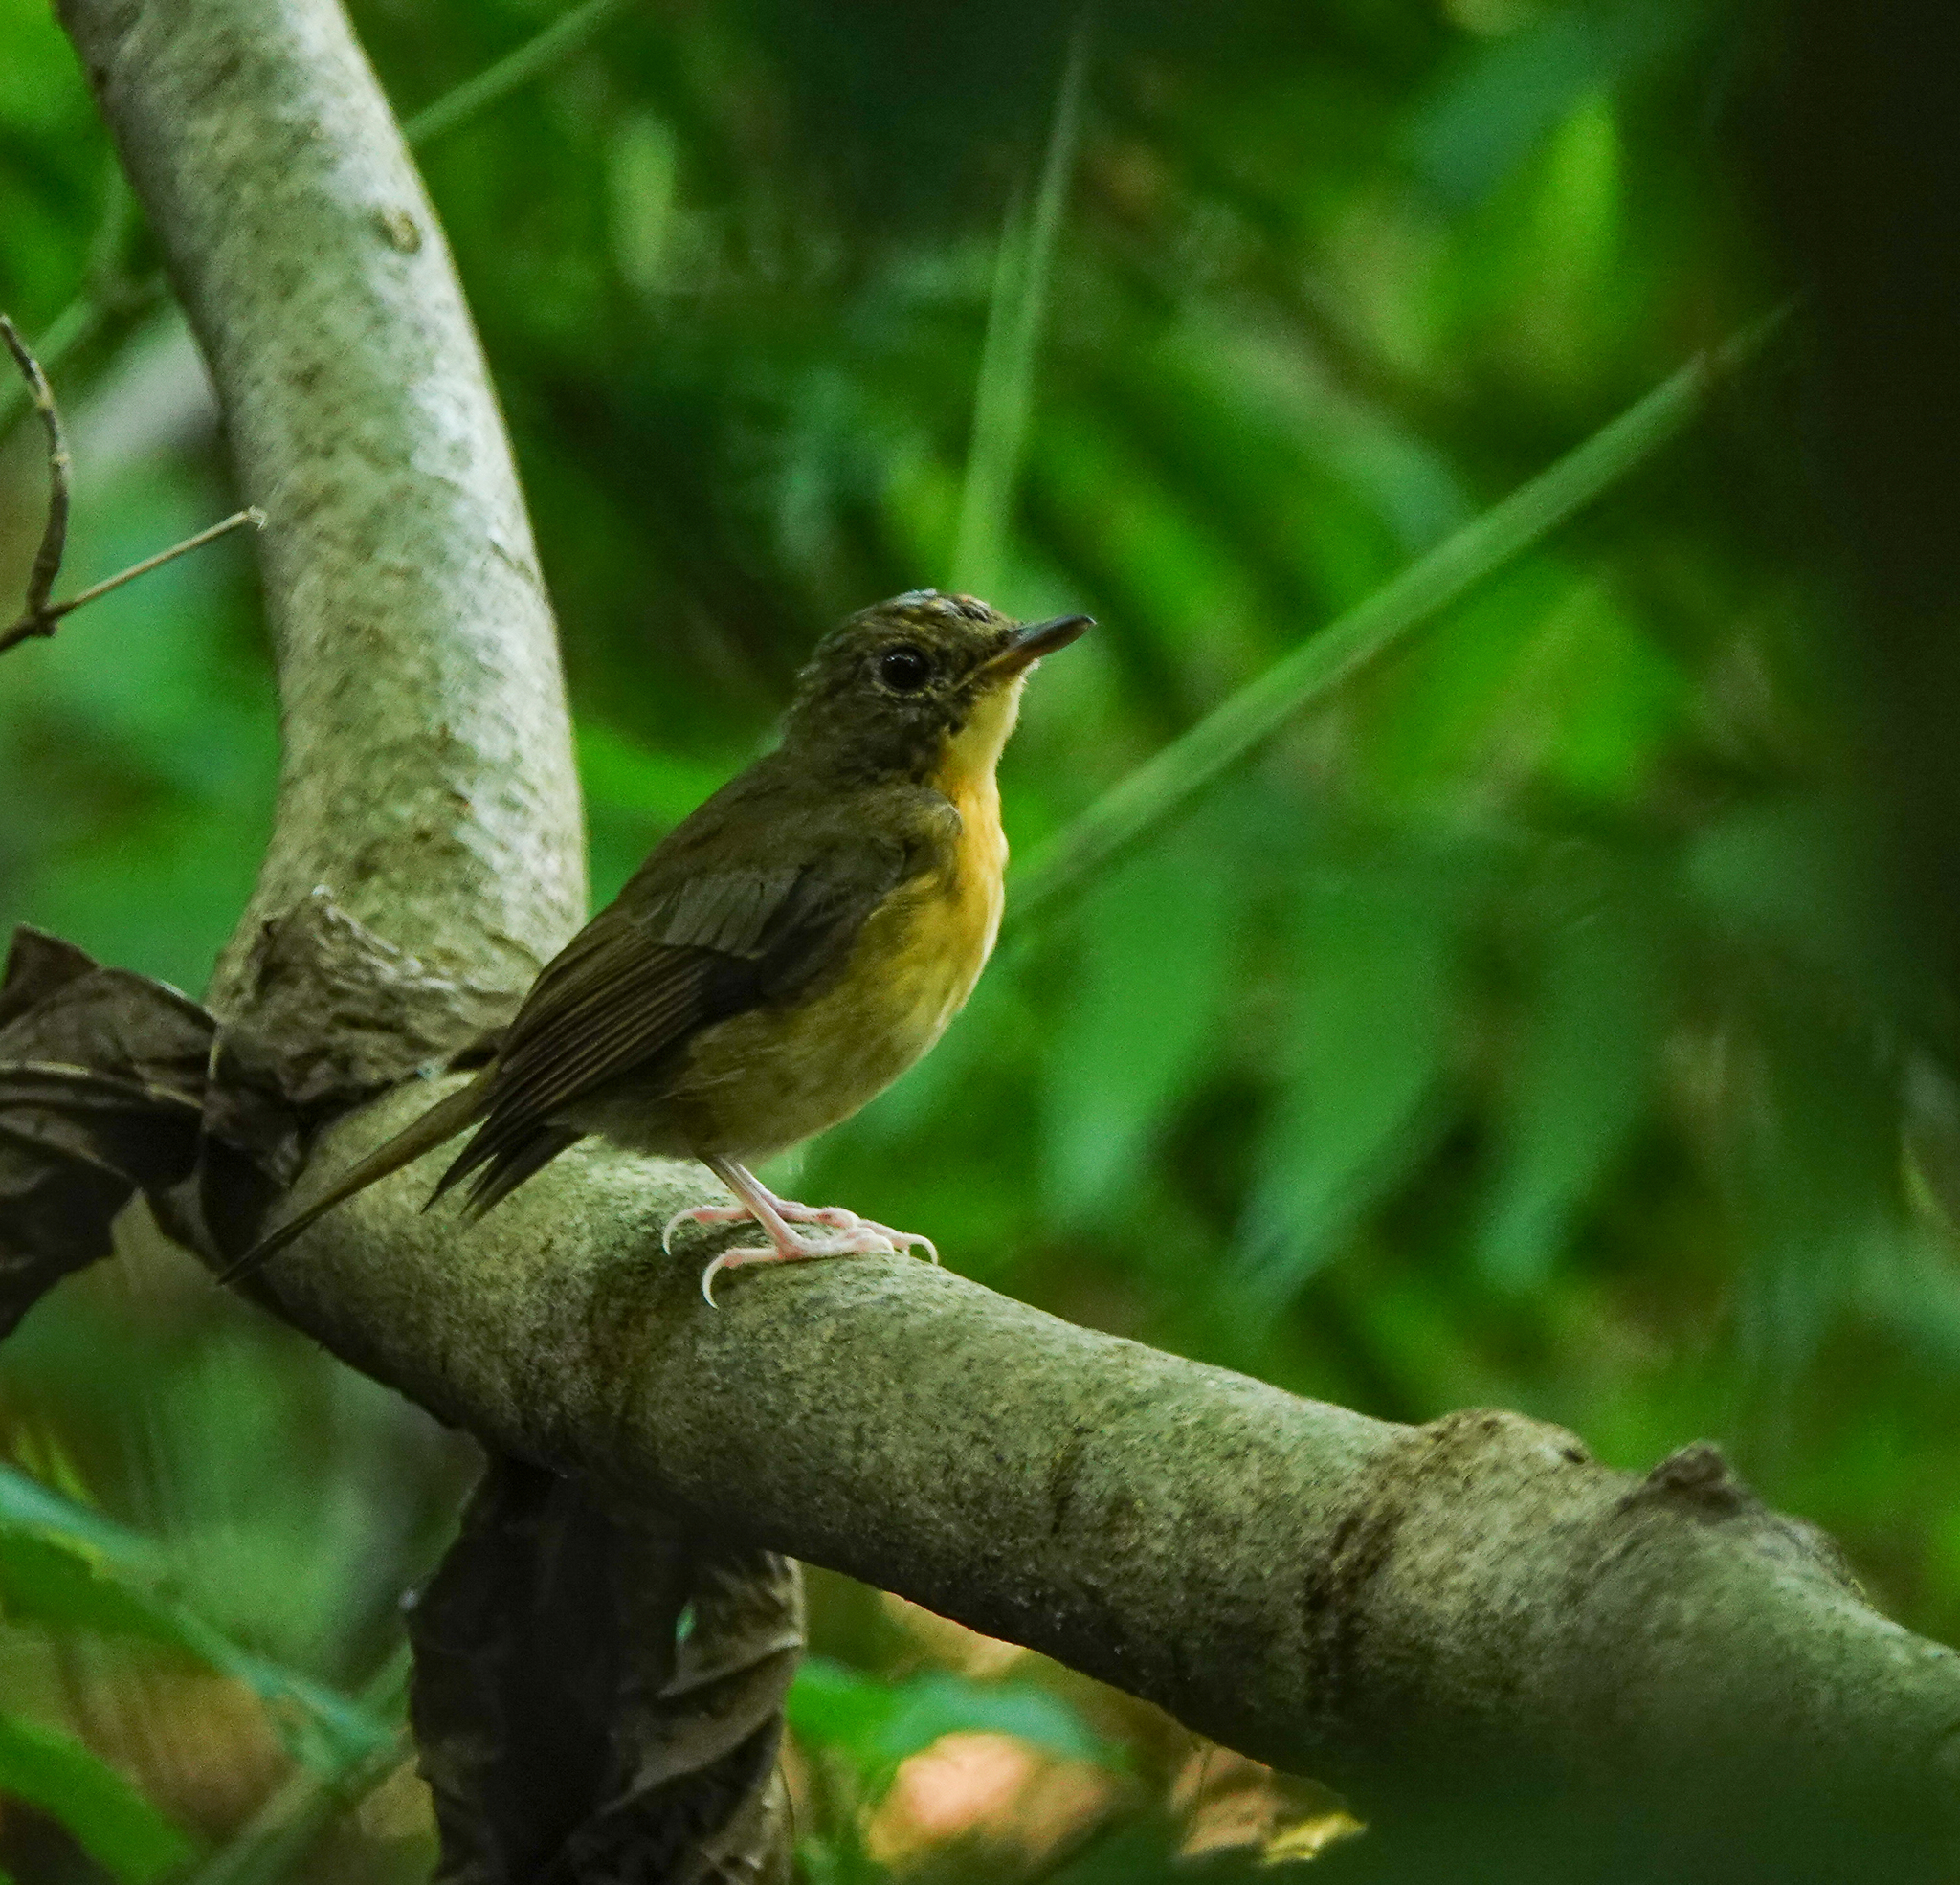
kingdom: Animalia
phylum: Chordata
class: Aves
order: Passeriformes
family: Muscicapidae
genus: Cyornis
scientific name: Cyornis poliogenys
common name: Pale-chinned blue flycatcher
